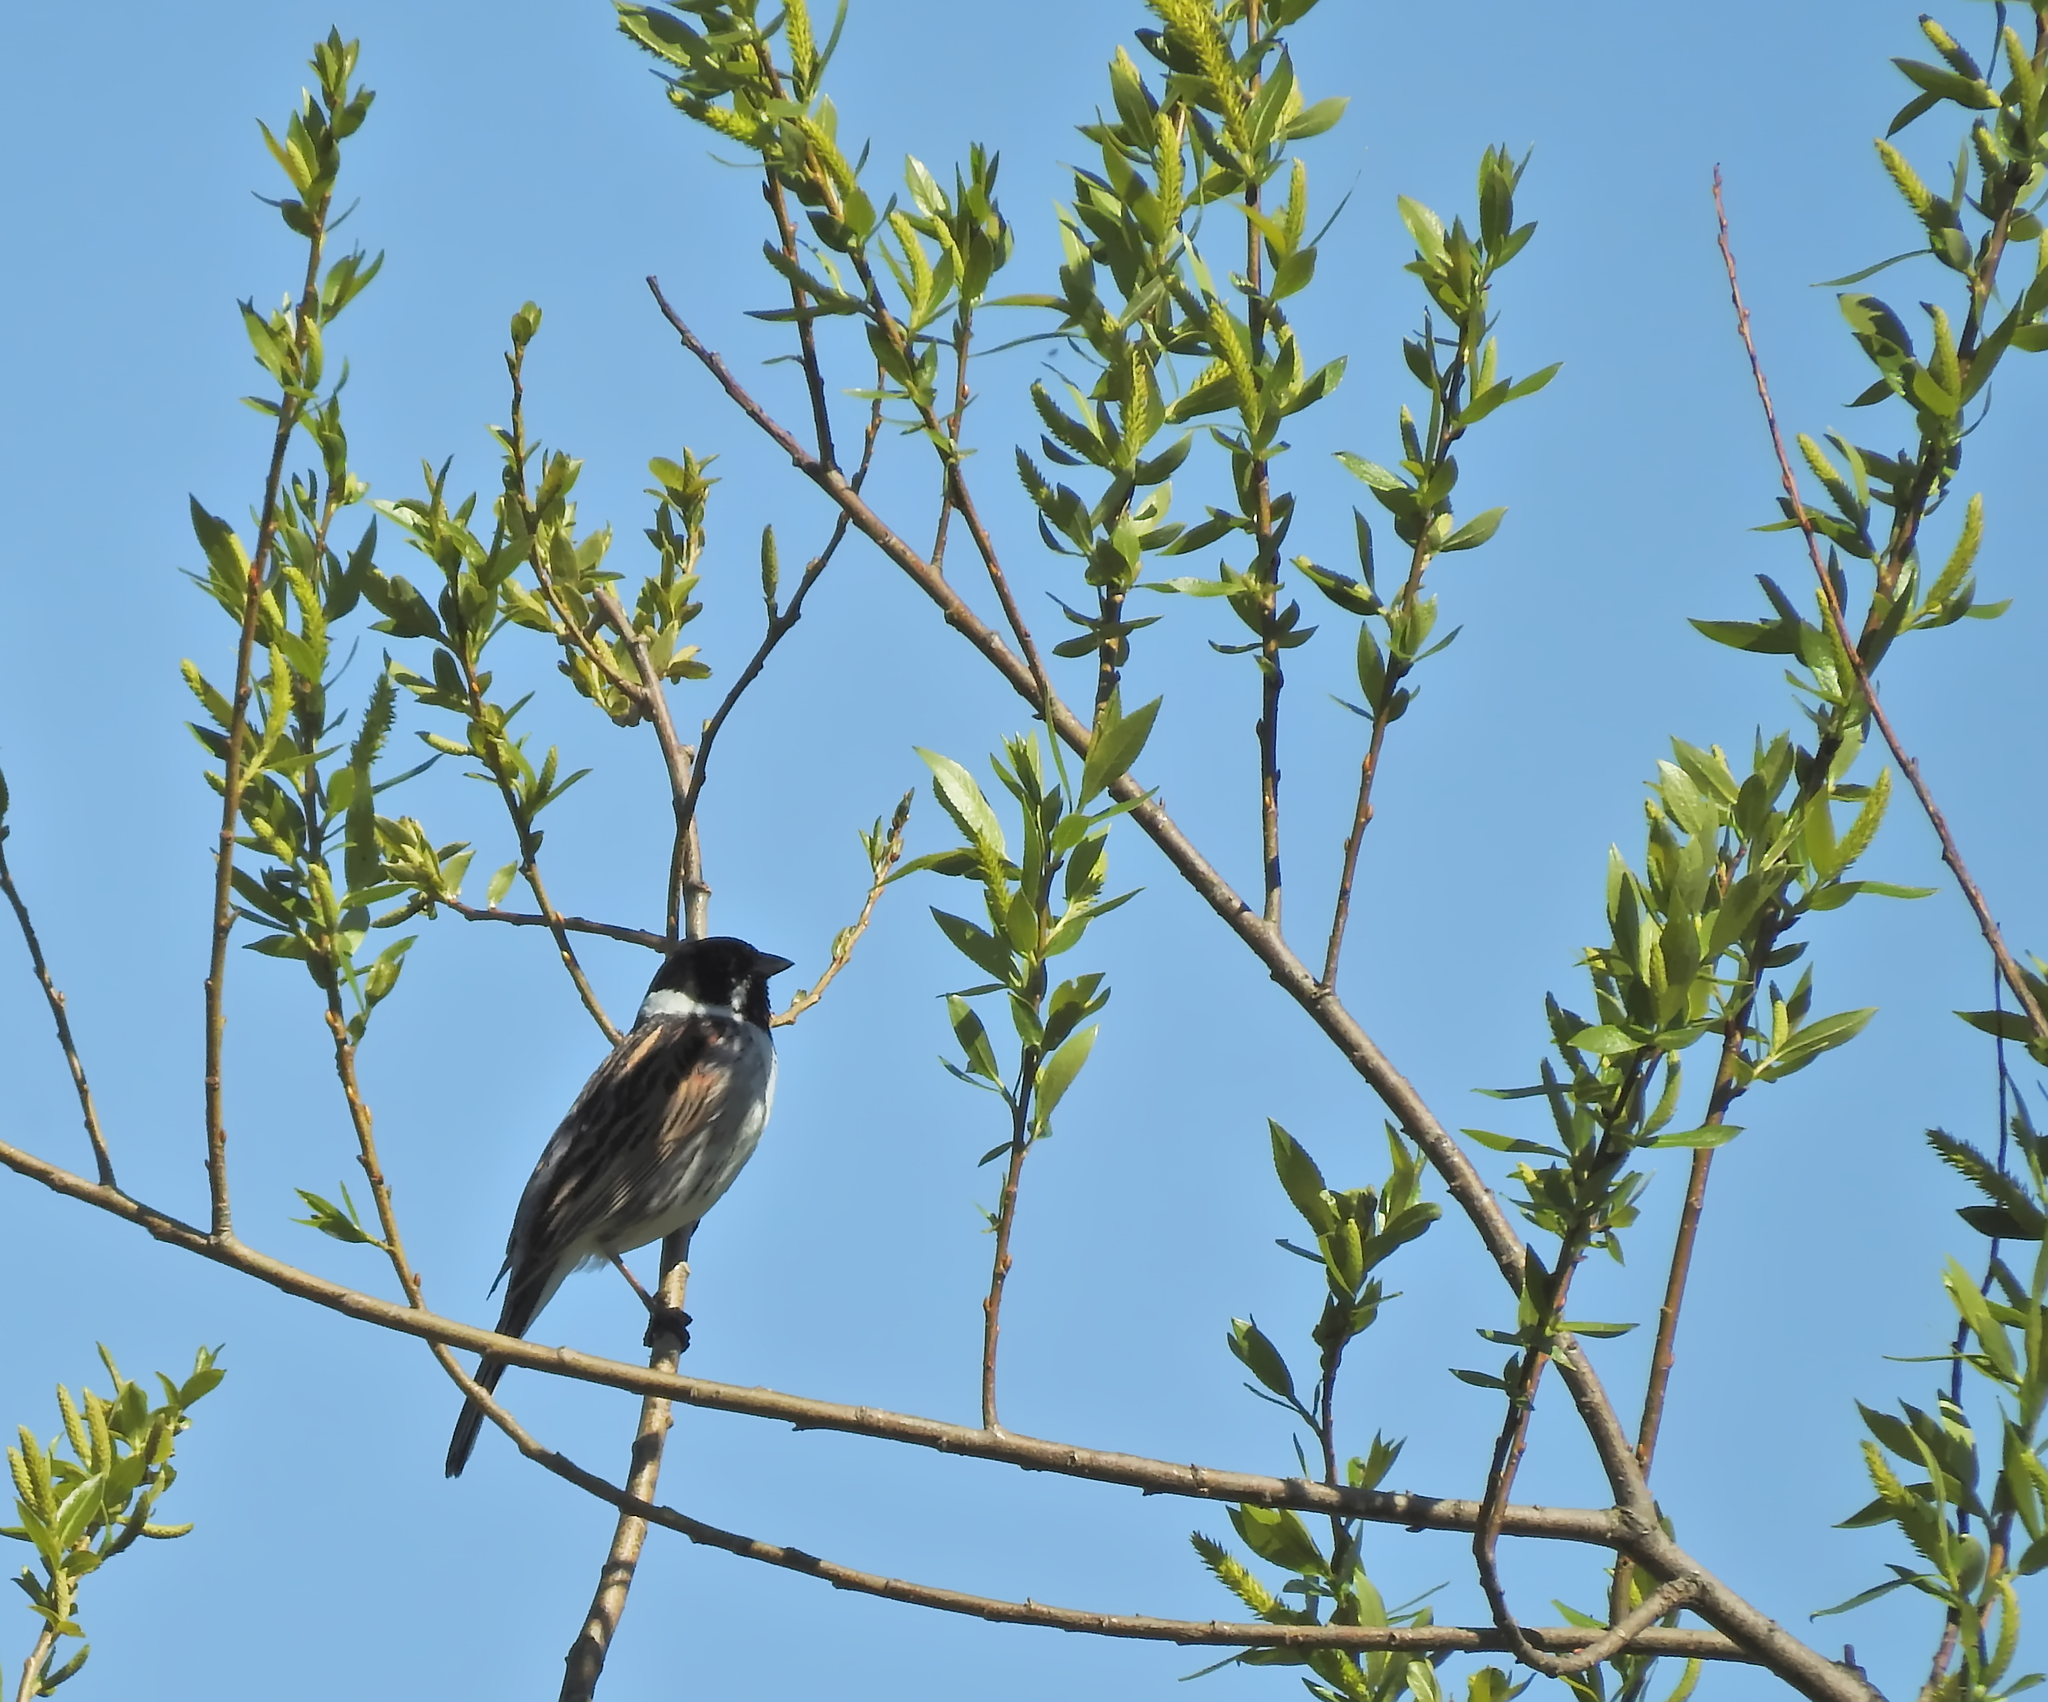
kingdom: Animalia
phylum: Chordata
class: Aves
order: Passeriformes
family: Emberizidae
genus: Emberiza
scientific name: Emberiza schoeniclus
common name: Reed bunting
